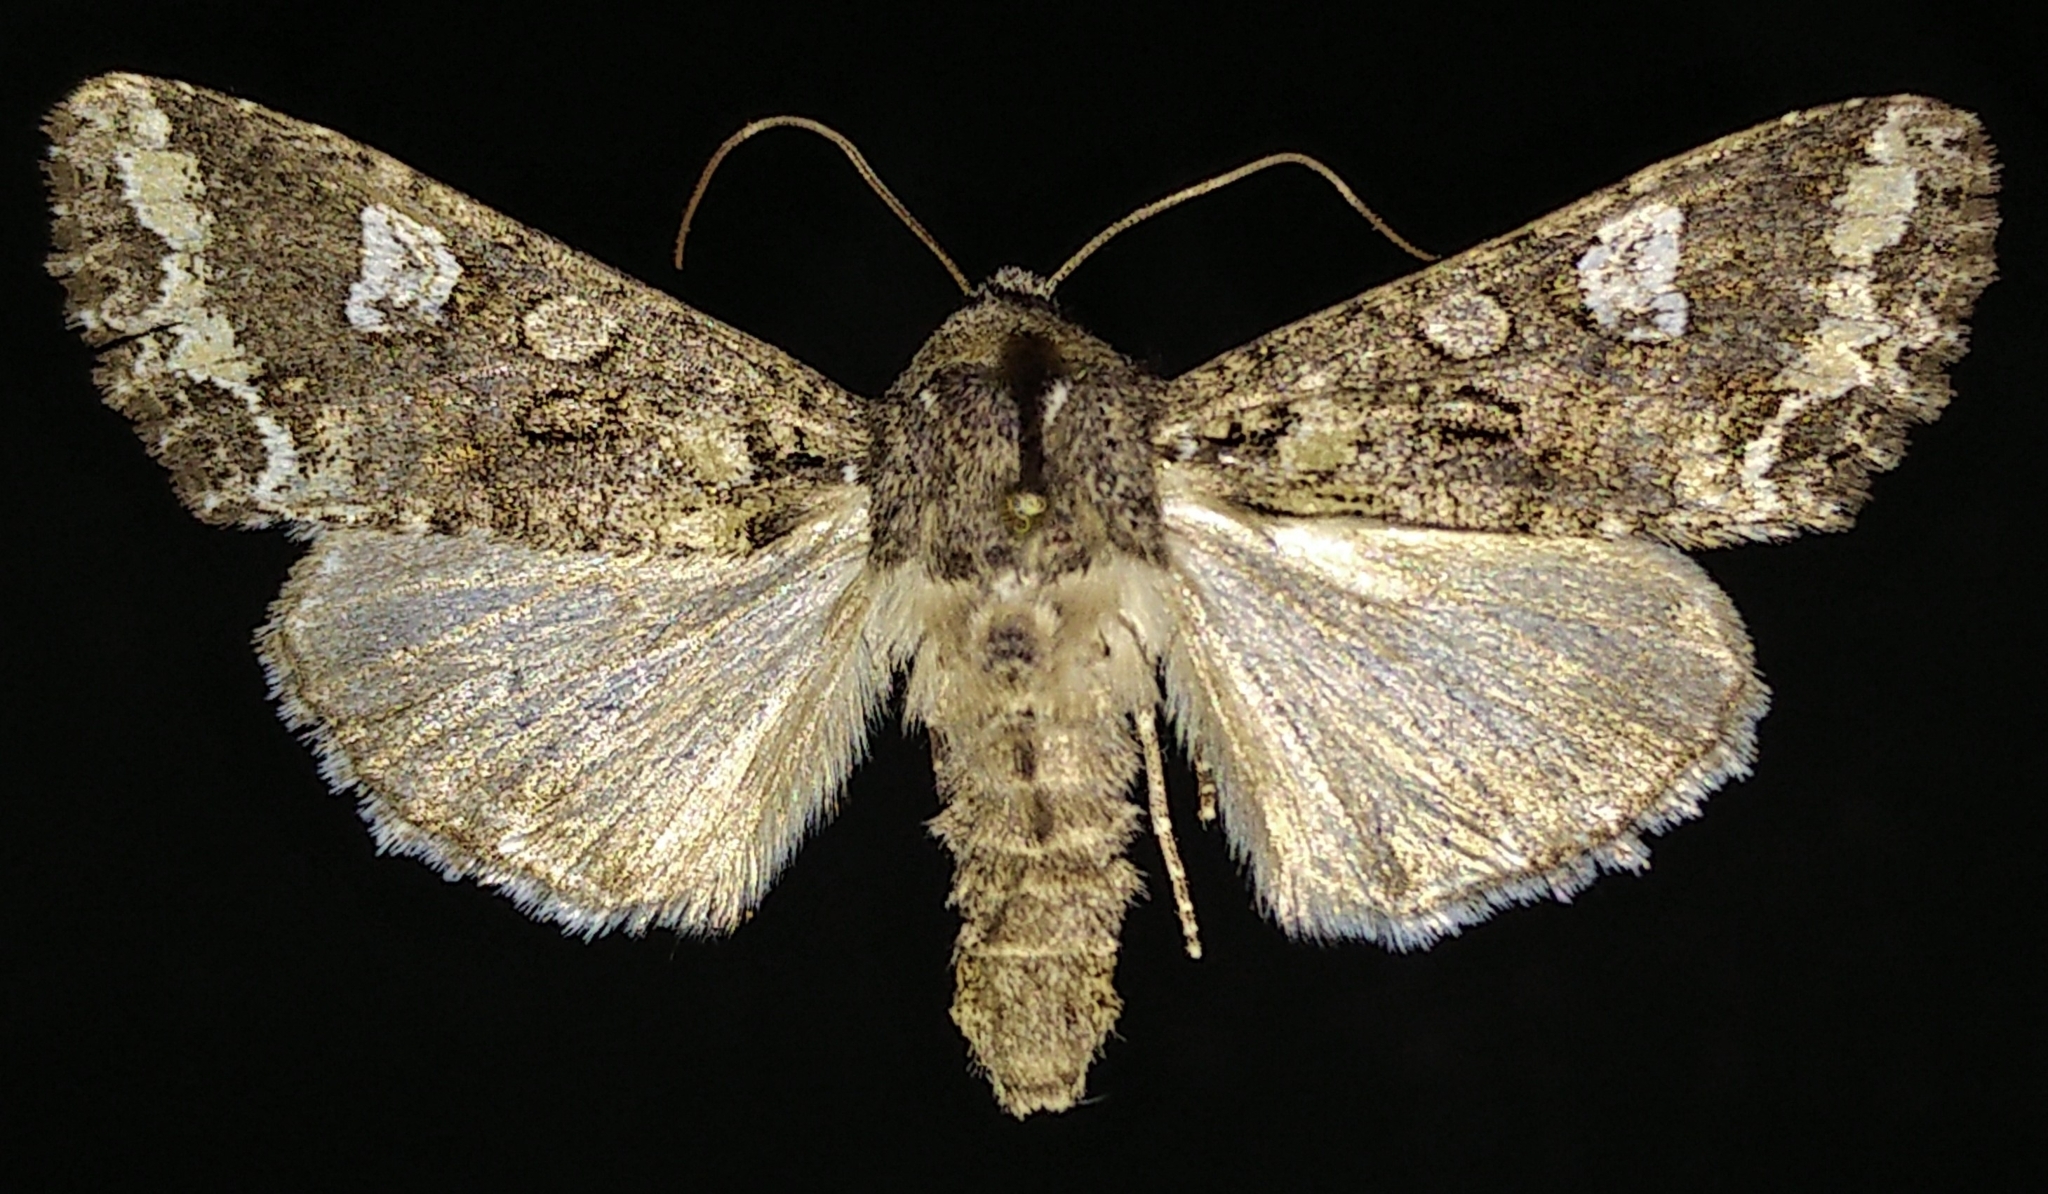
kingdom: Animalia
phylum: Arthropoda
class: Insecta
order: Lepidoptera
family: Noctuidae
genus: Mamestra
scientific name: Mamestra configurata
